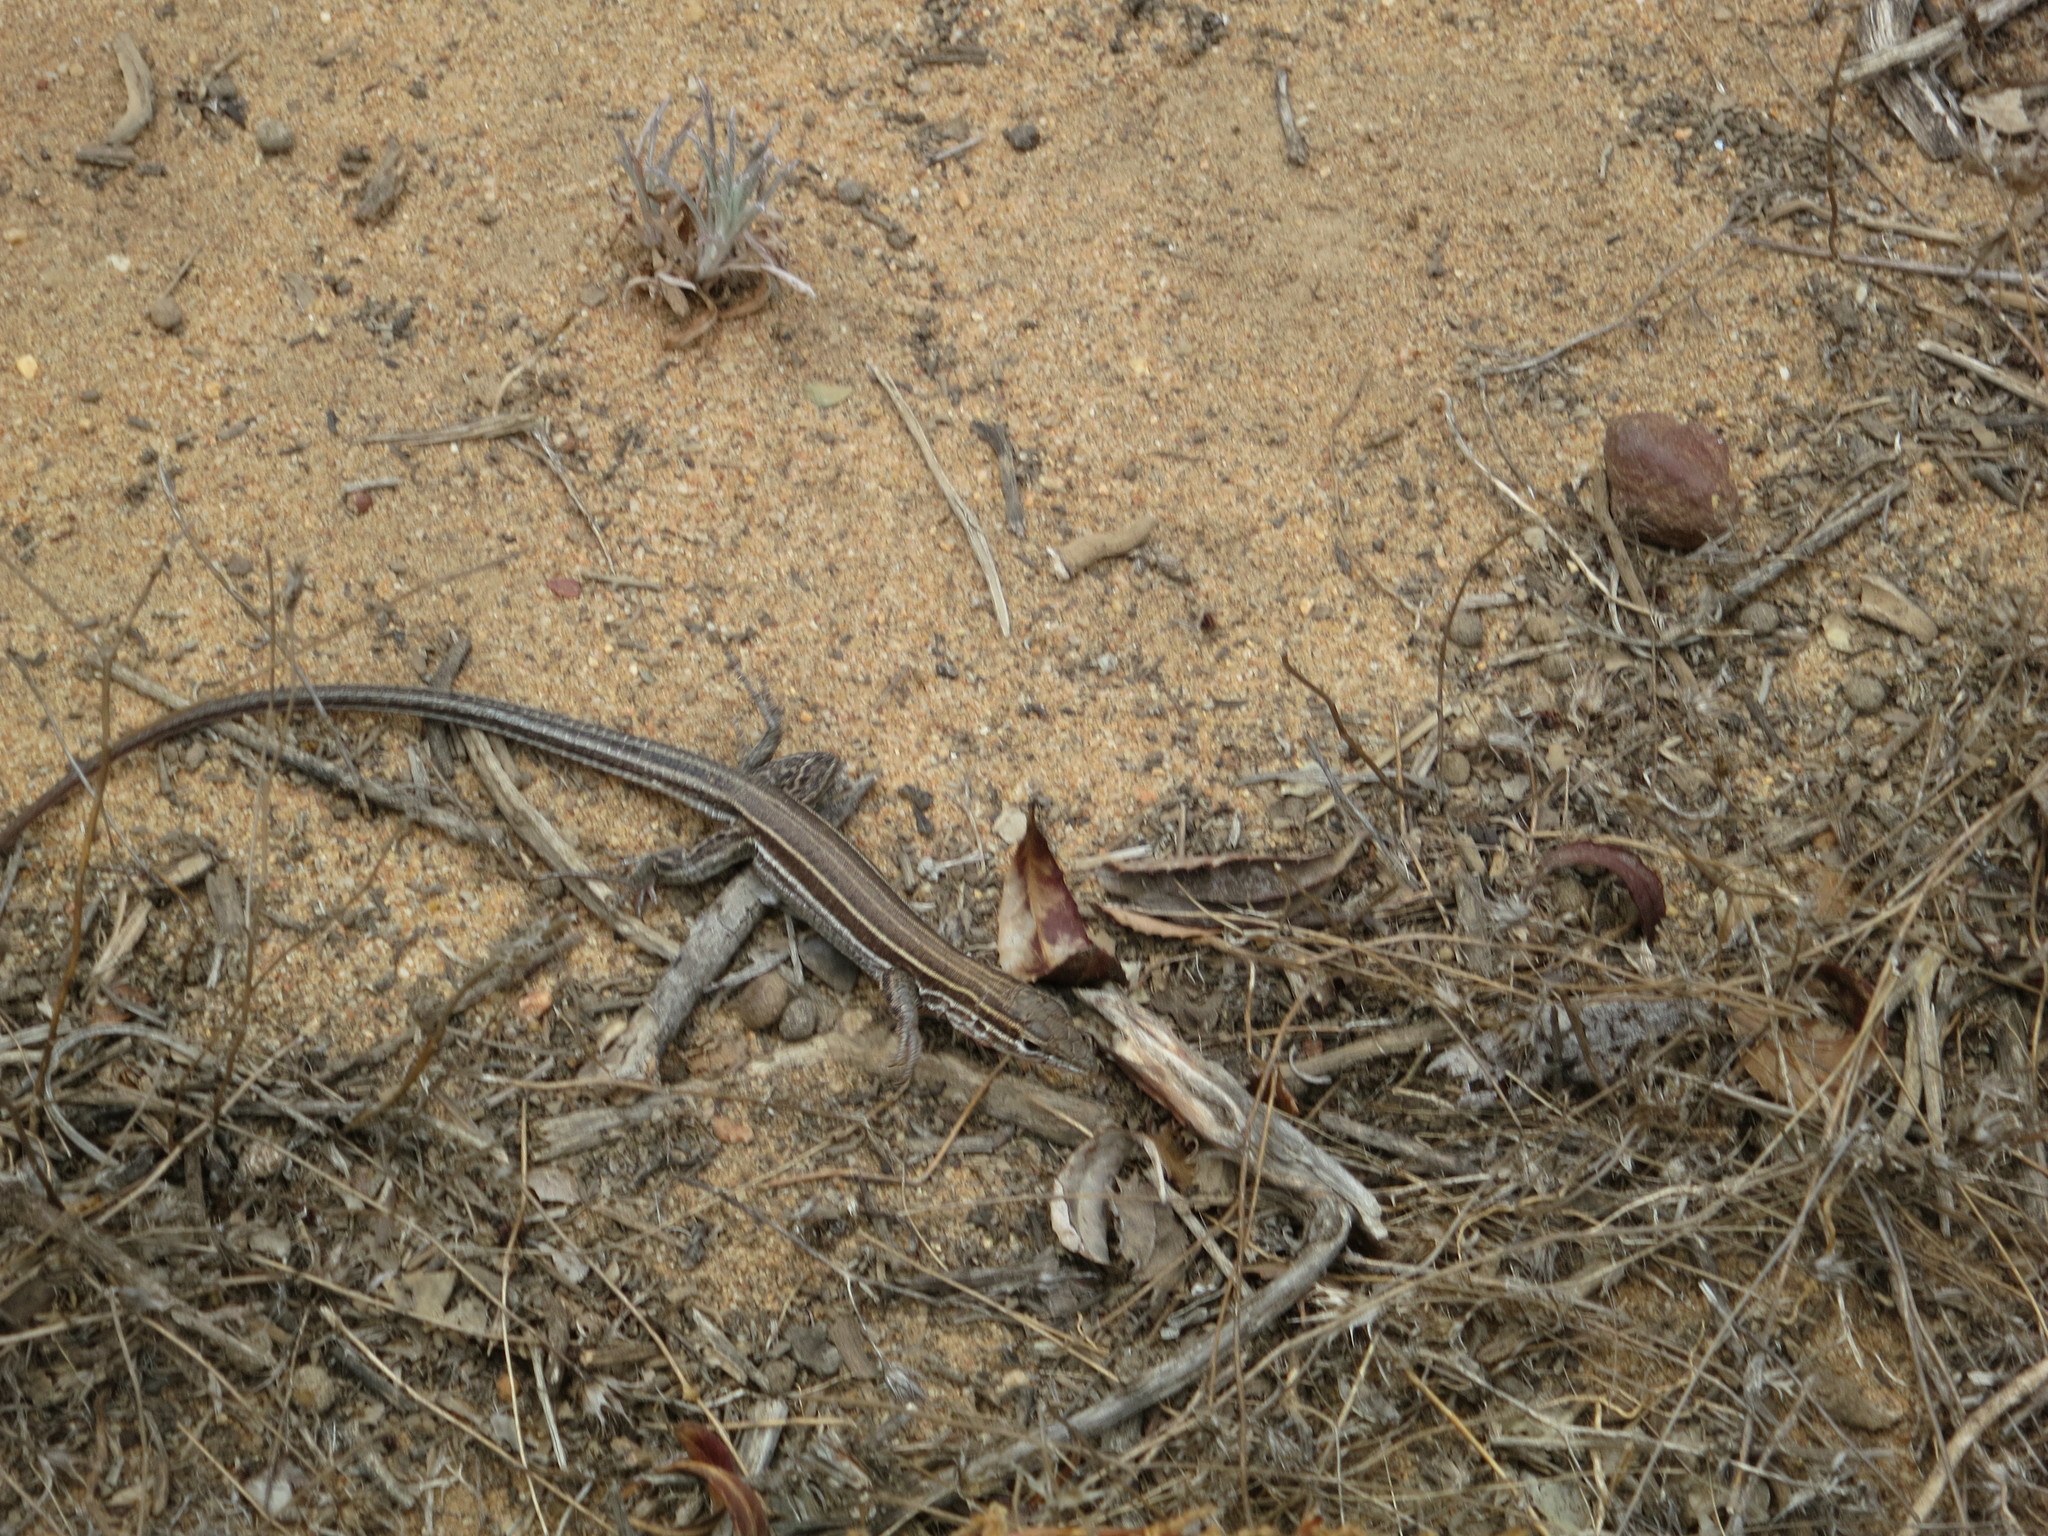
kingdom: Animalia
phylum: Chordata
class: Squamata
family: Teiidae
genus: Aspidoscelis
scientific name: Aspidoscelis hyperythrus
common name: Orange-throated race-runner
